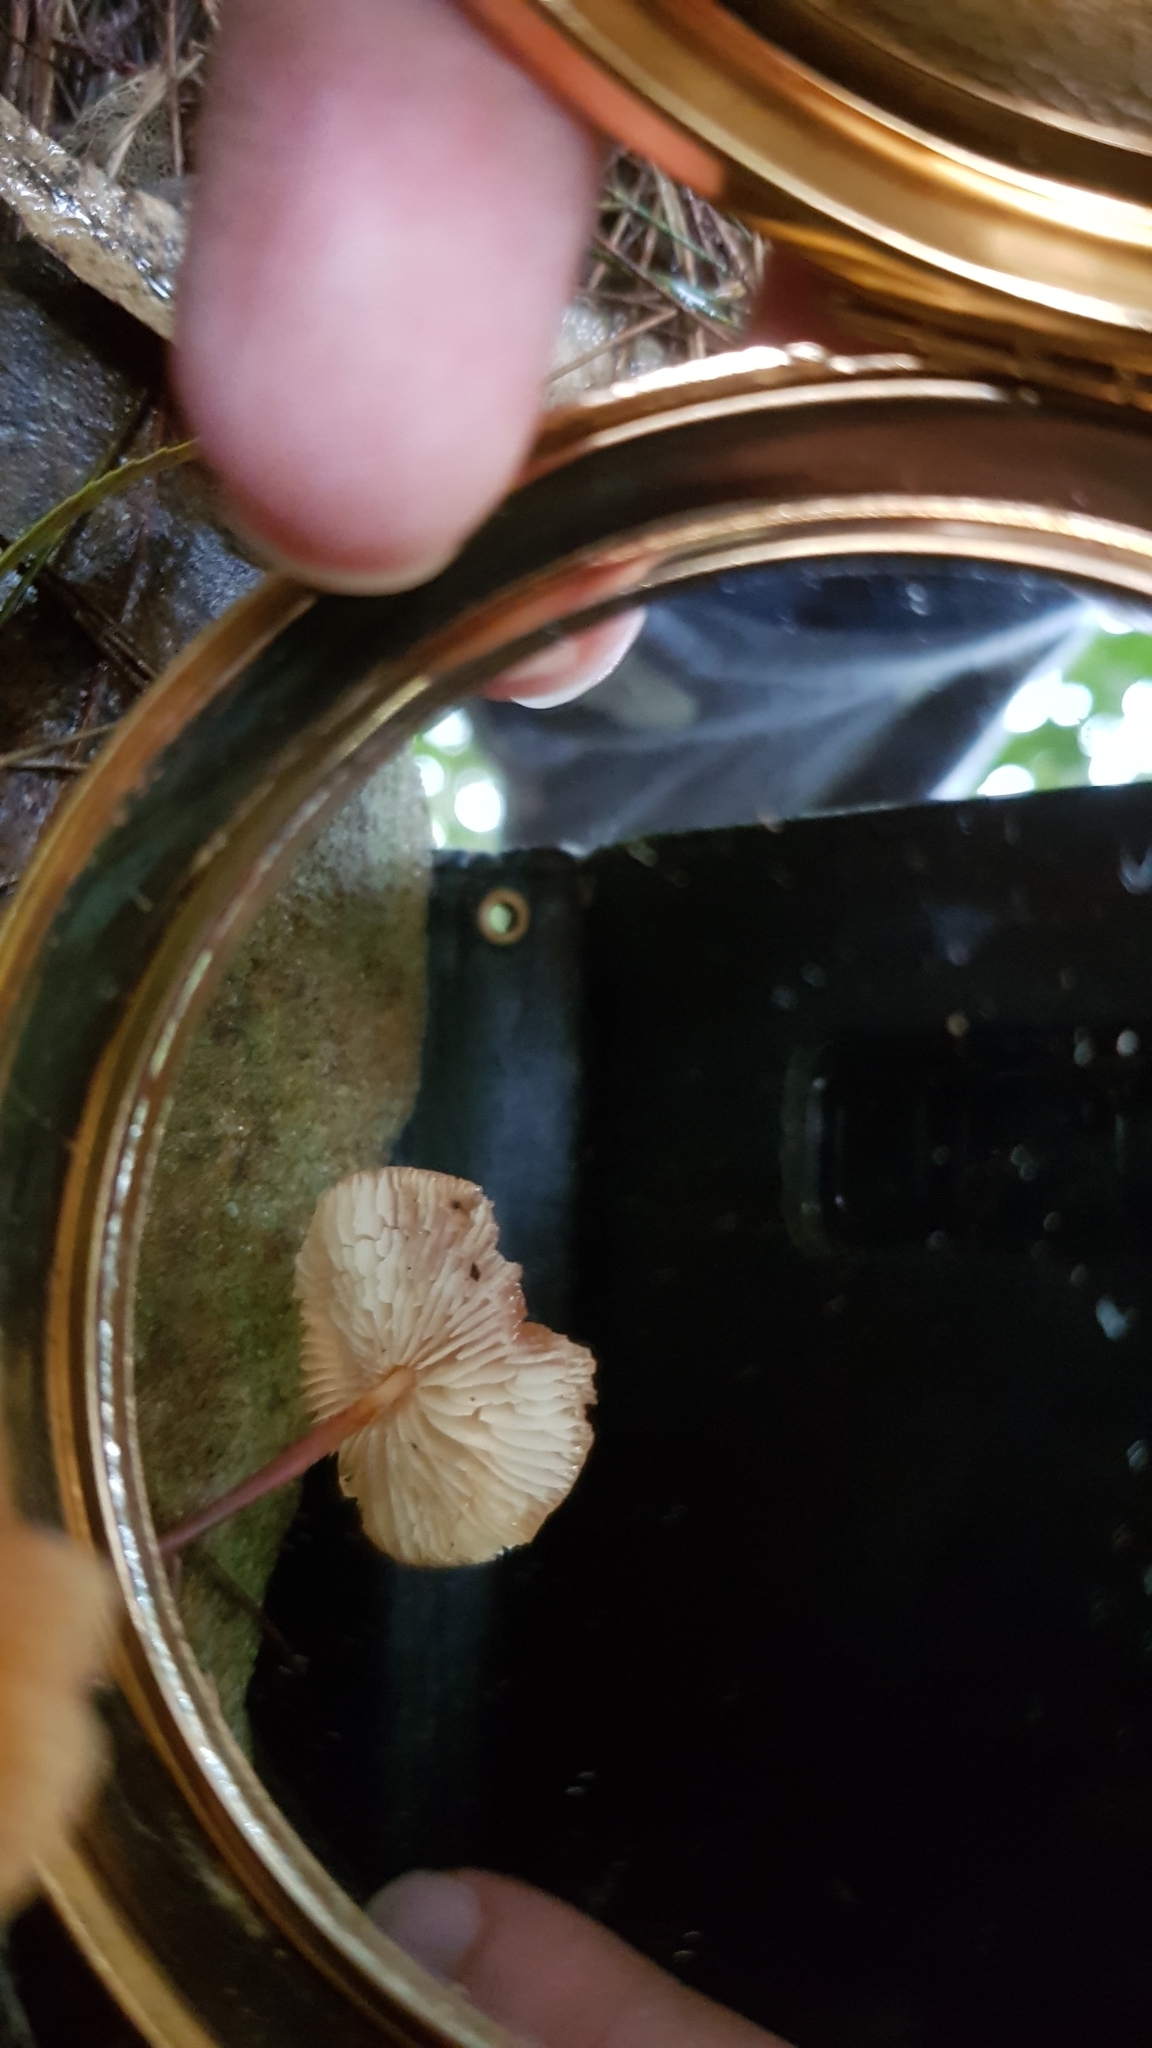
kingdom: Fungi
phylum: Basidiomycota
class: Agaricomycetes
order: Agaricales
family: Marasmiaceae
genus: Marasmius
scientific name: Marasmius elegans
